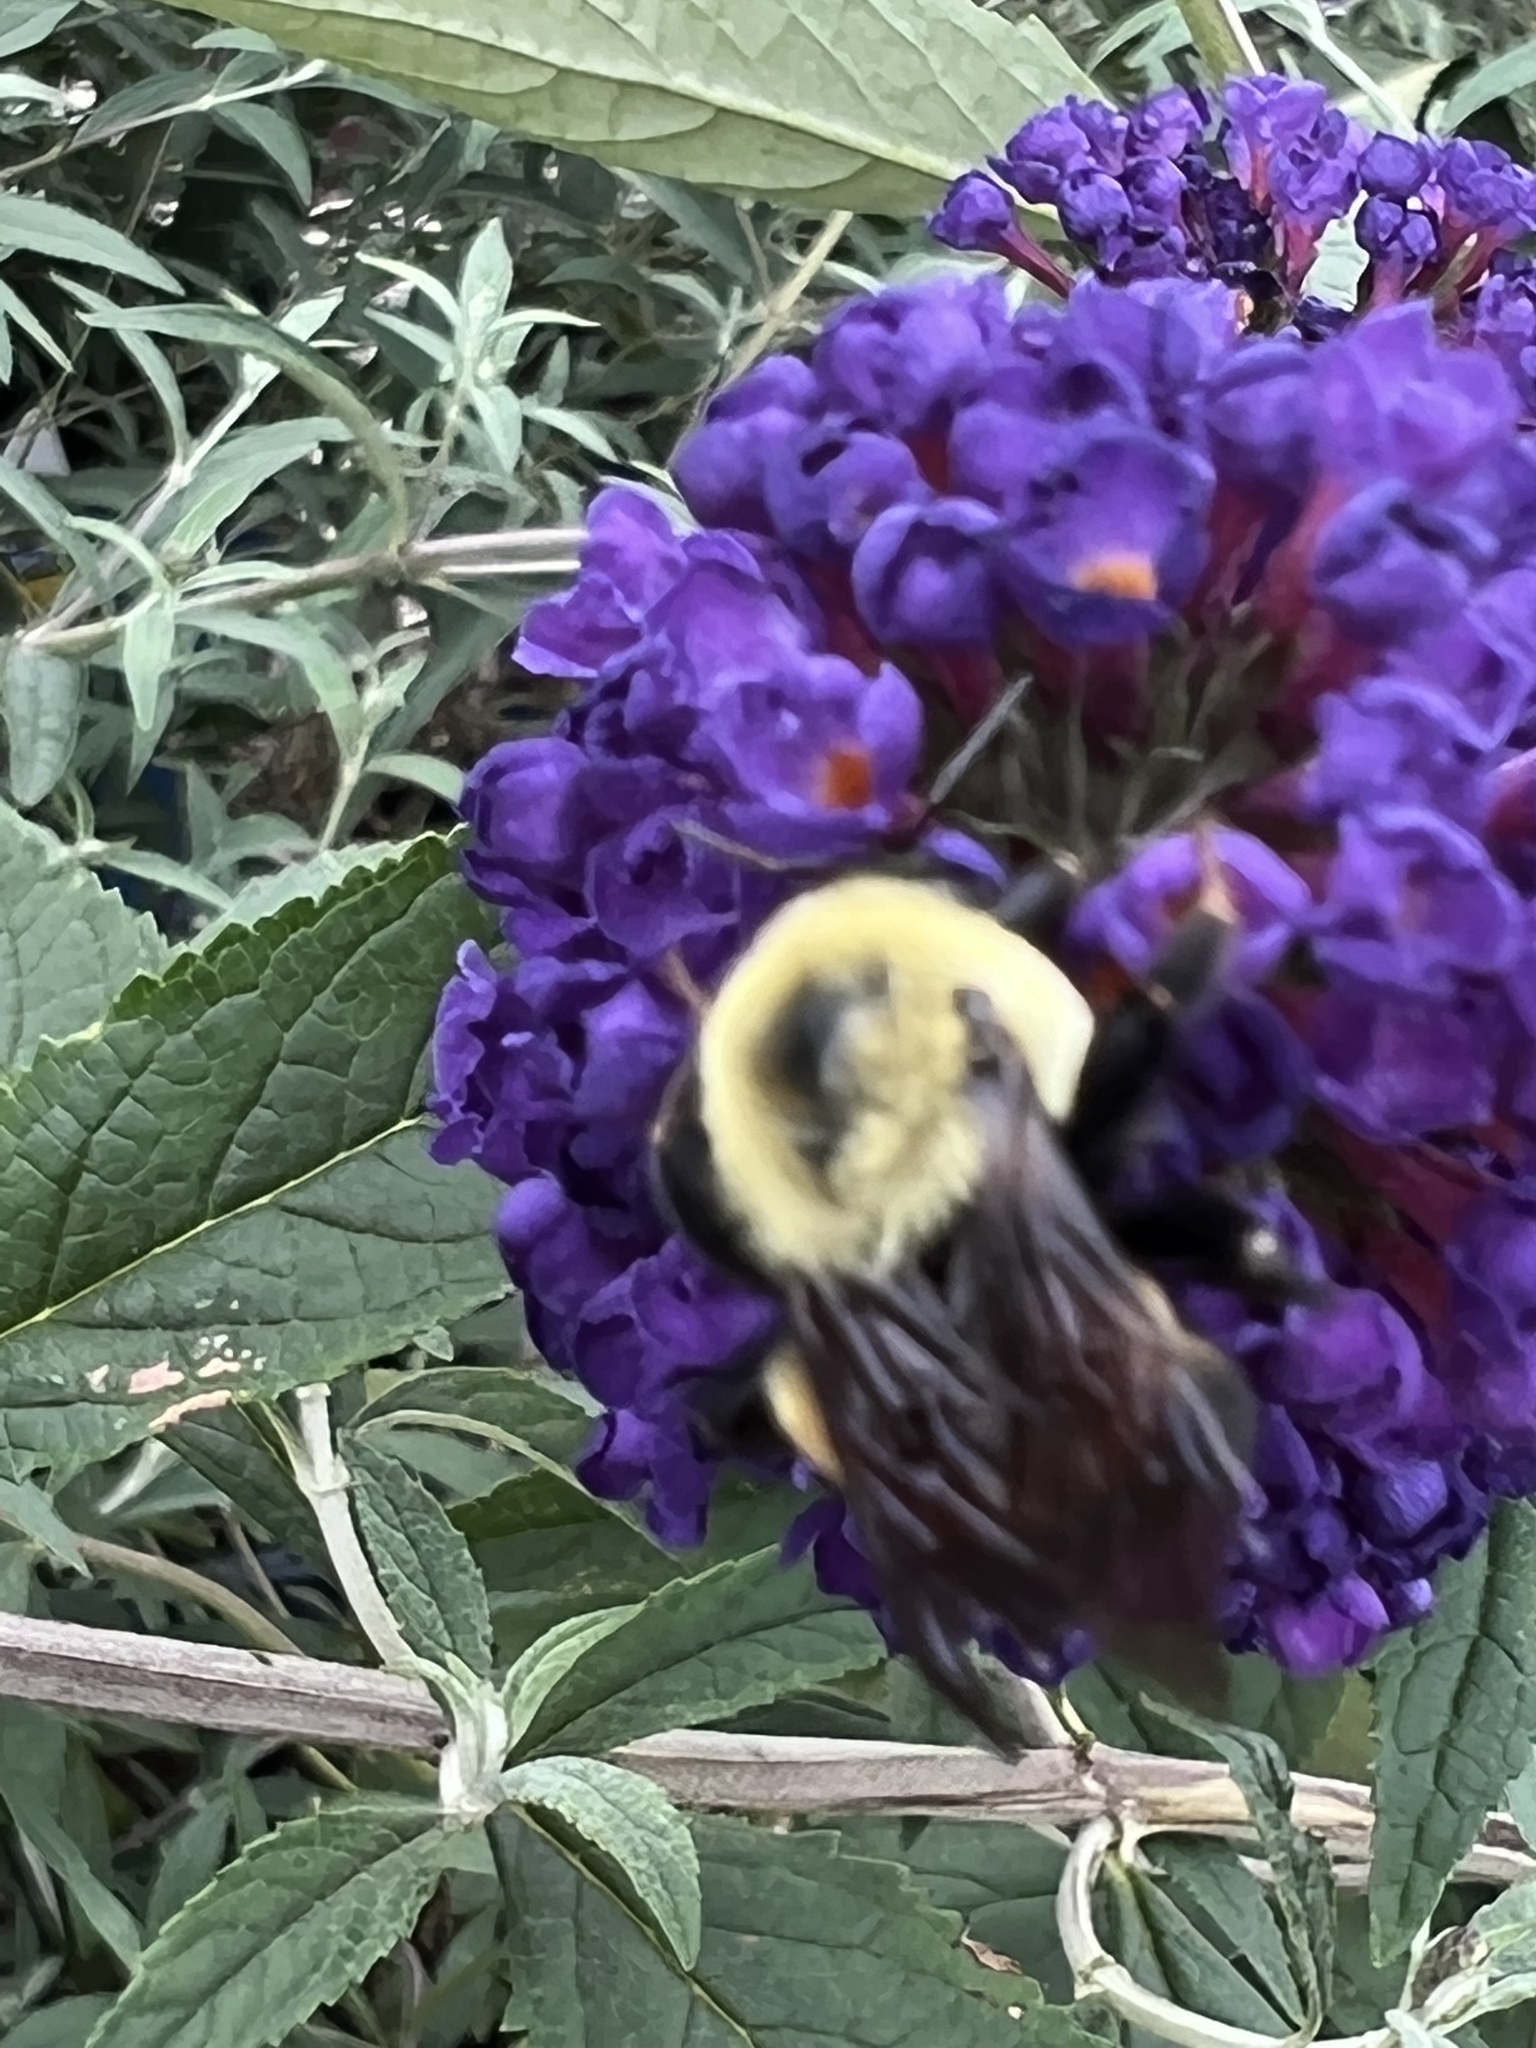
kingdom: Animalia
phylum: Arthropoda
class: Insecta
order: Hymenoptera
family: Apidae
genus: Bombus
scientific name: Bombus griseocollis
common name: Brown-belted bumble bee
